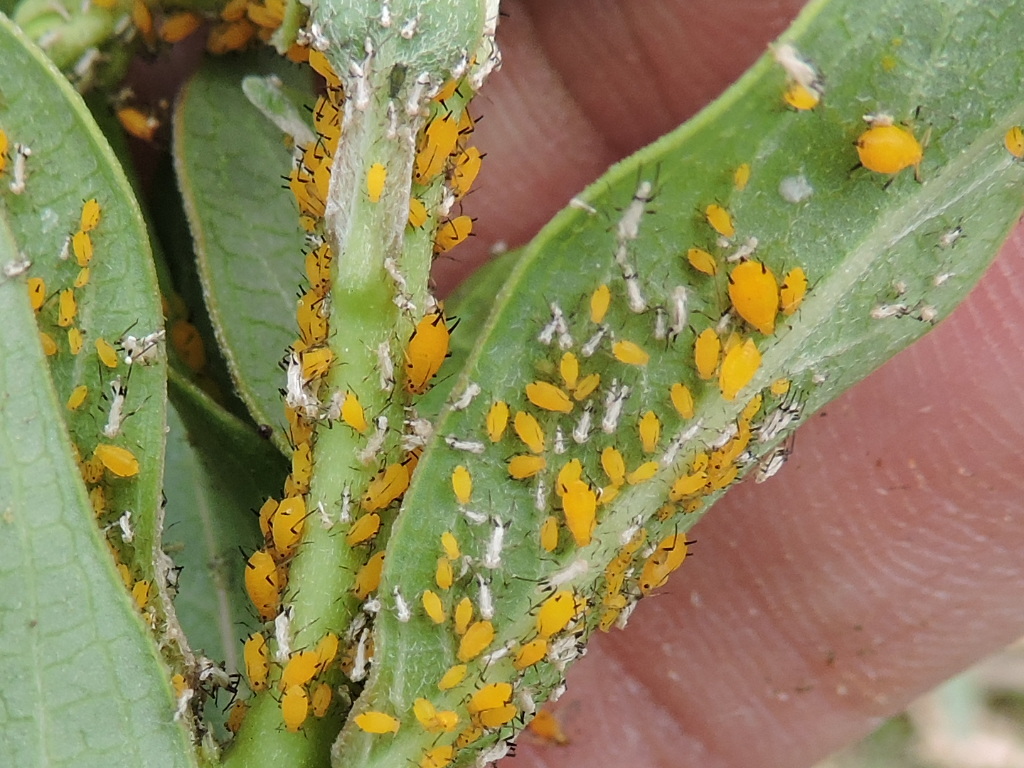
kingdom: Animalia
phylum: Arthropoda
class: Insecta
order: Hemiptera
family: Aphididae
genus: Aphis
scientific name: Aphis nerii
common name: Oleander aphid
